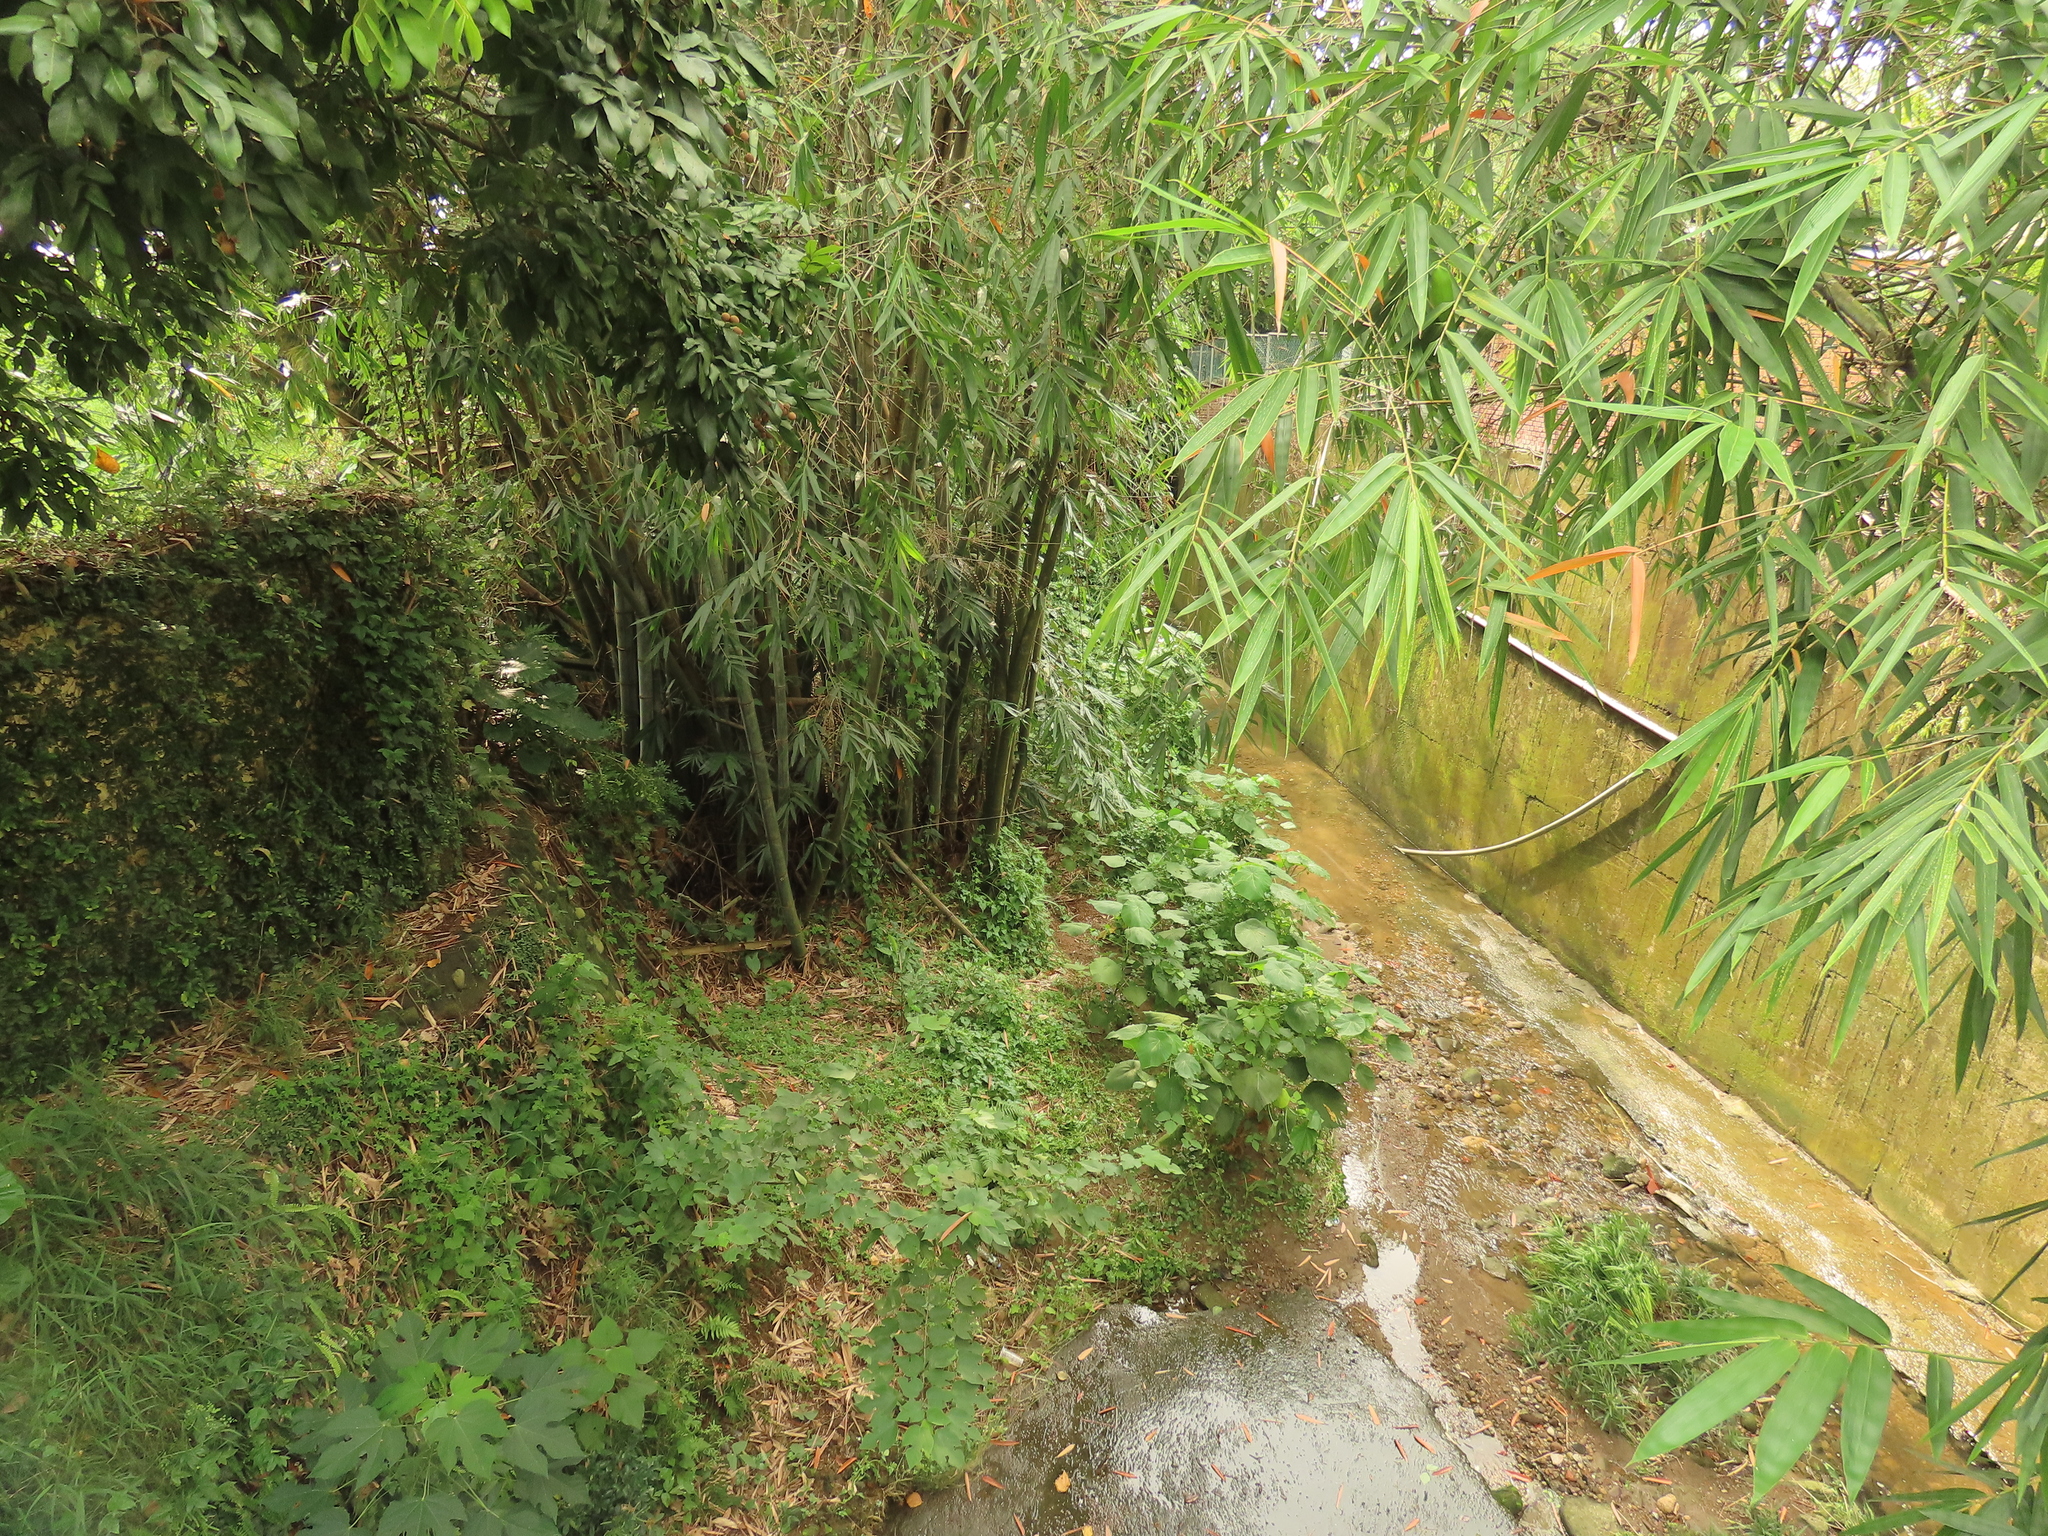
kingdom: Plantae
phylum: Tracheophyta
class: Magnoliopsida
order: Malpighiales
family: Euphorbiaceae
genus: Macaranga
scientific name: Macaranga tanarius
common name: Parasol leaf tree
